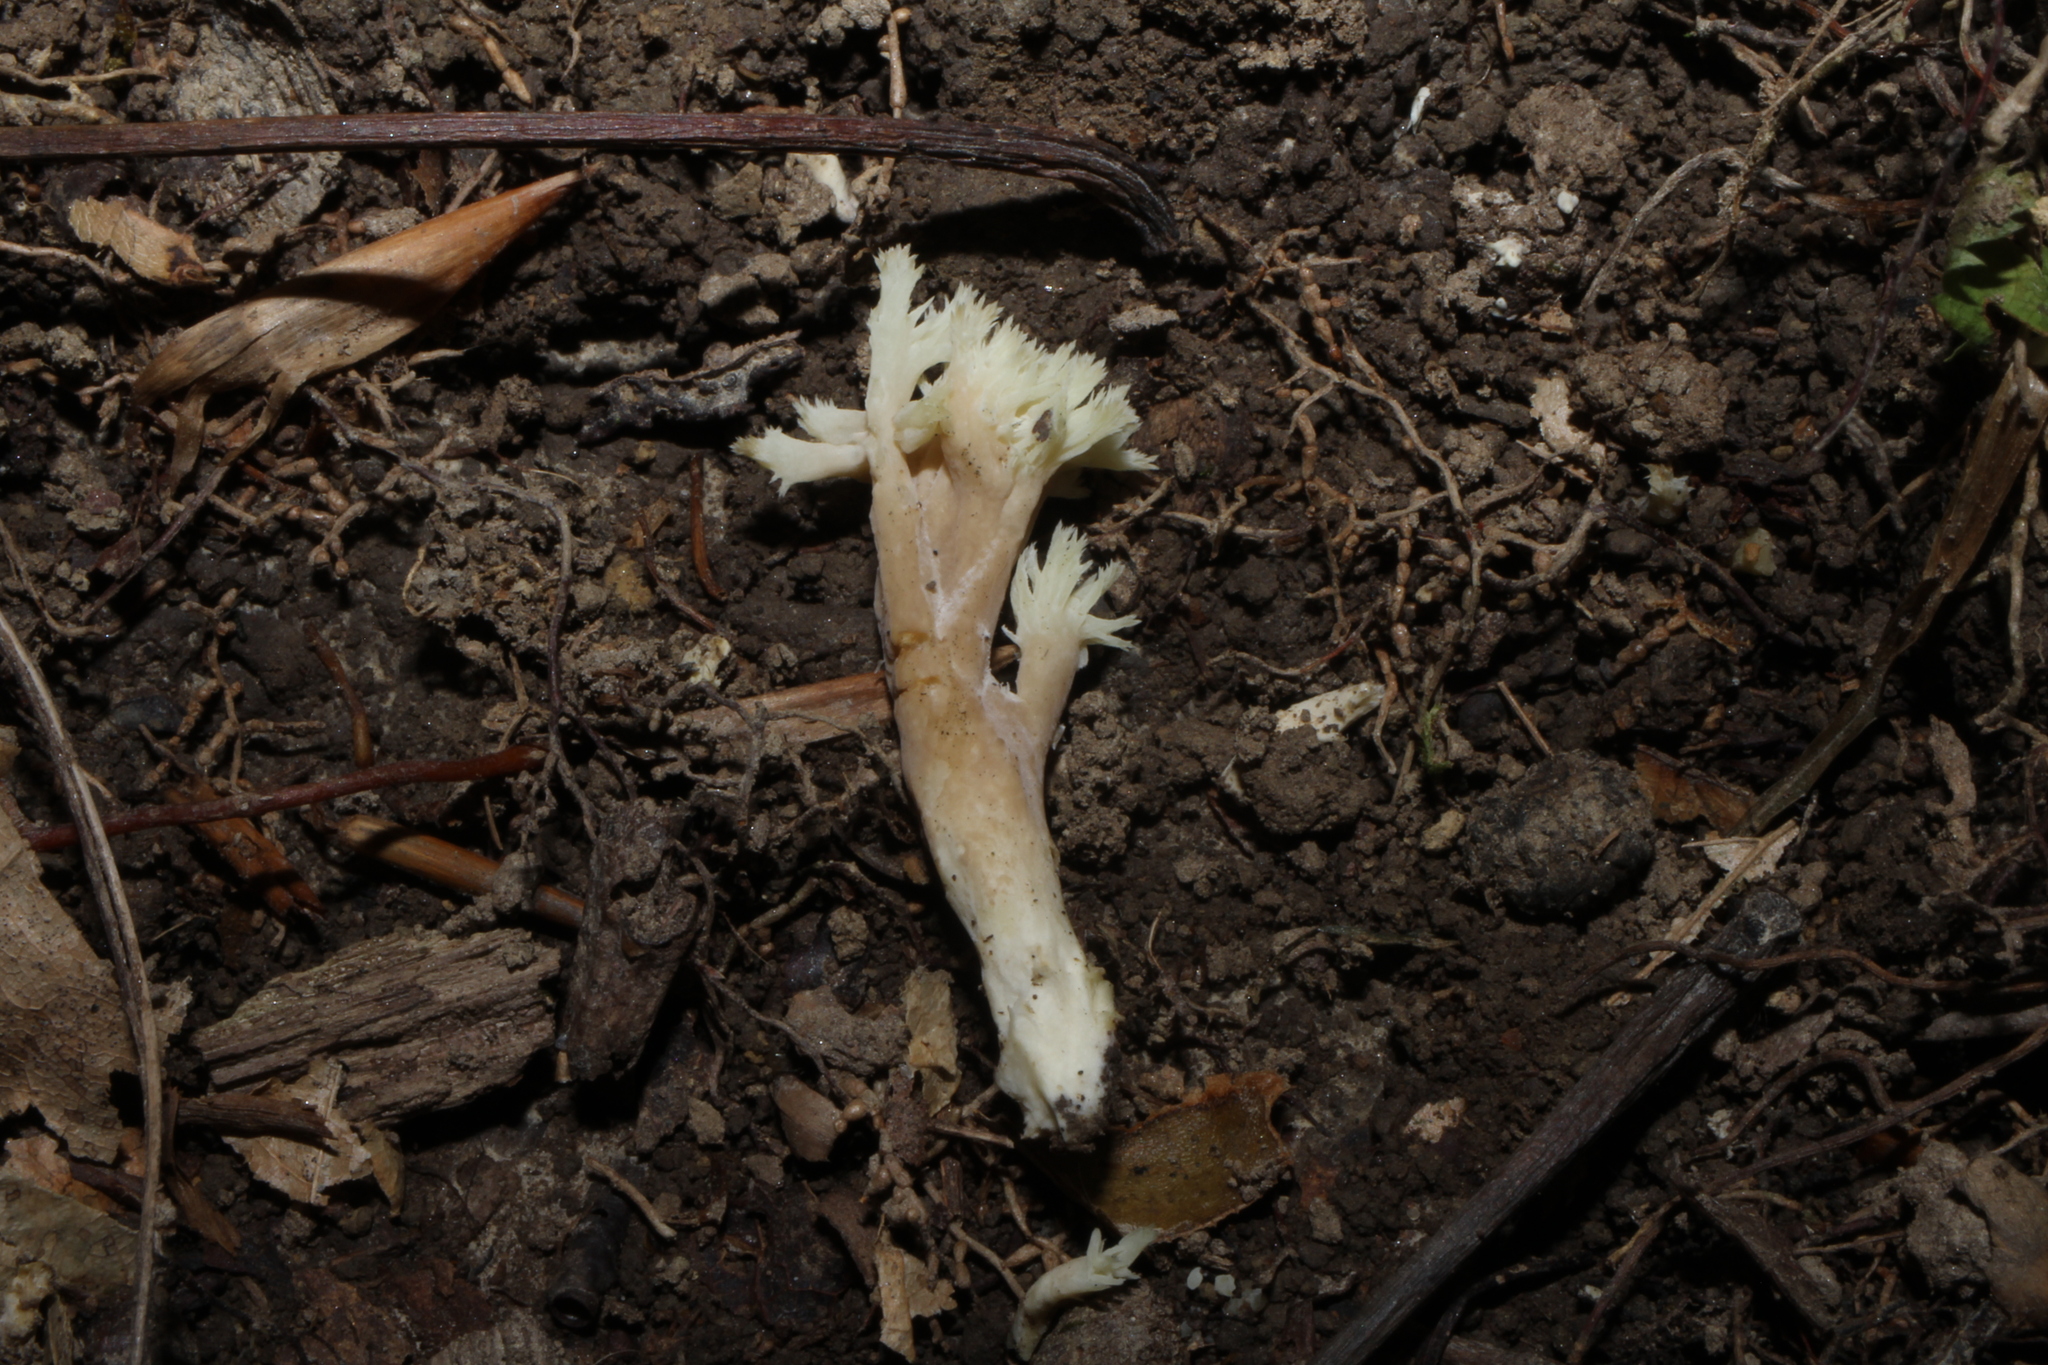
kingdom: Fungi
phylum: Basidiomycota
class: Agaricomycetes
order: Cantharellales
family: Hydnaceae
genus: Clavulina
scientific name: Clavulina coralloides
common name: Crested coral
